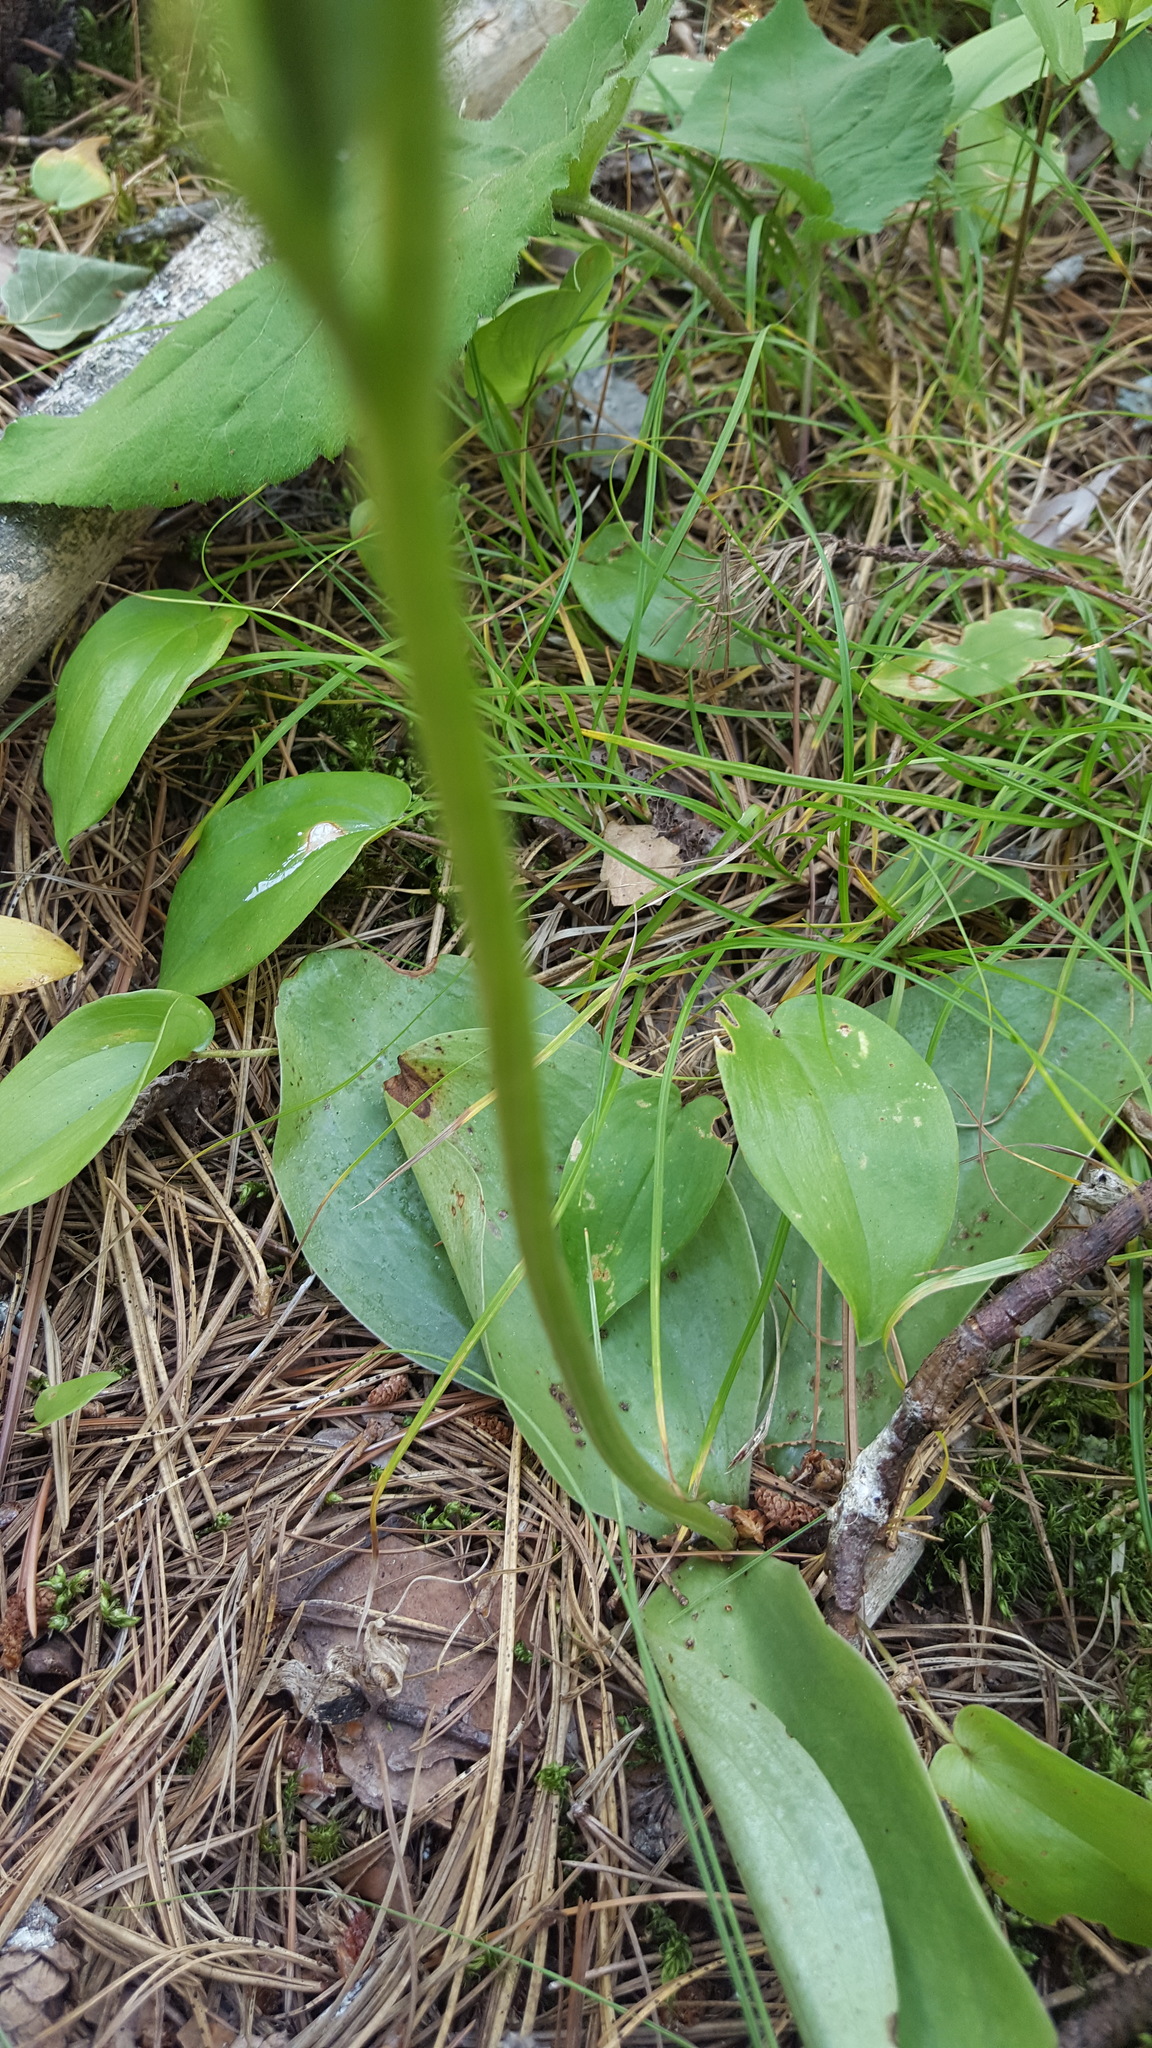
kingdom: Plantae
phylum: Tracheophyta
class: Liliopsida
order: Asparagales
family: Orchidaceae
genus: Platanthera
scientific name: Platanthera hookeri
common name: Hooker's orchid
